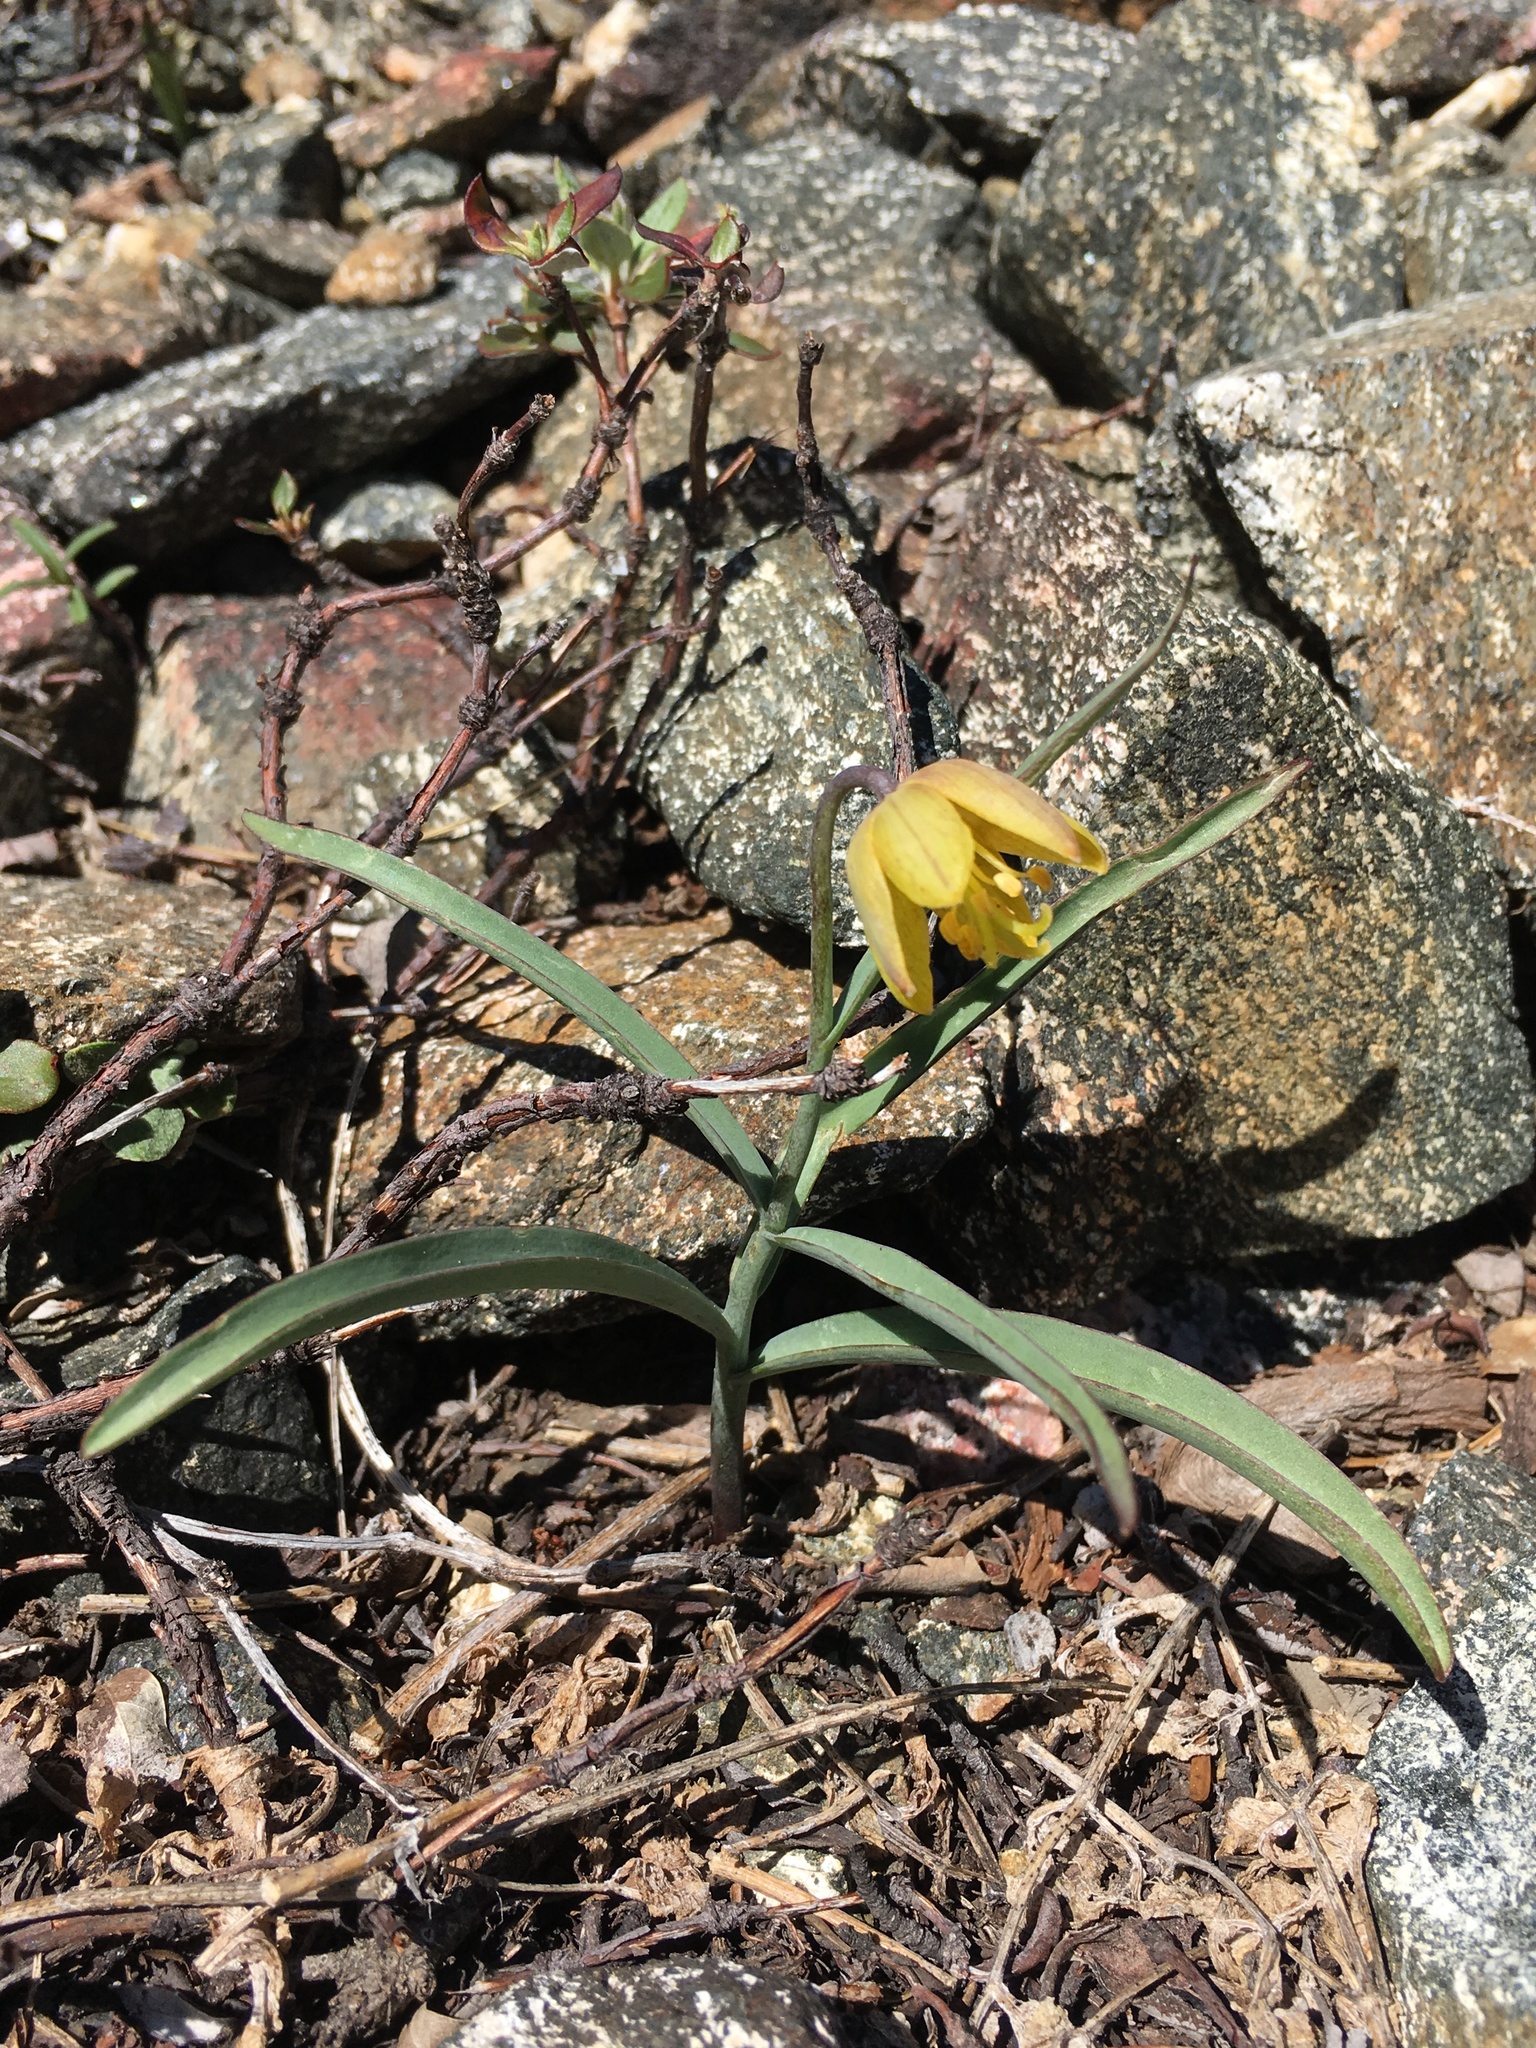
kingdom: Plantae
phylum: Tracheophyta
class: Liliopsida
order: Liliales
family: Liliaceae
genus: Fritillaria
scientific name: Fritillaria glauca
